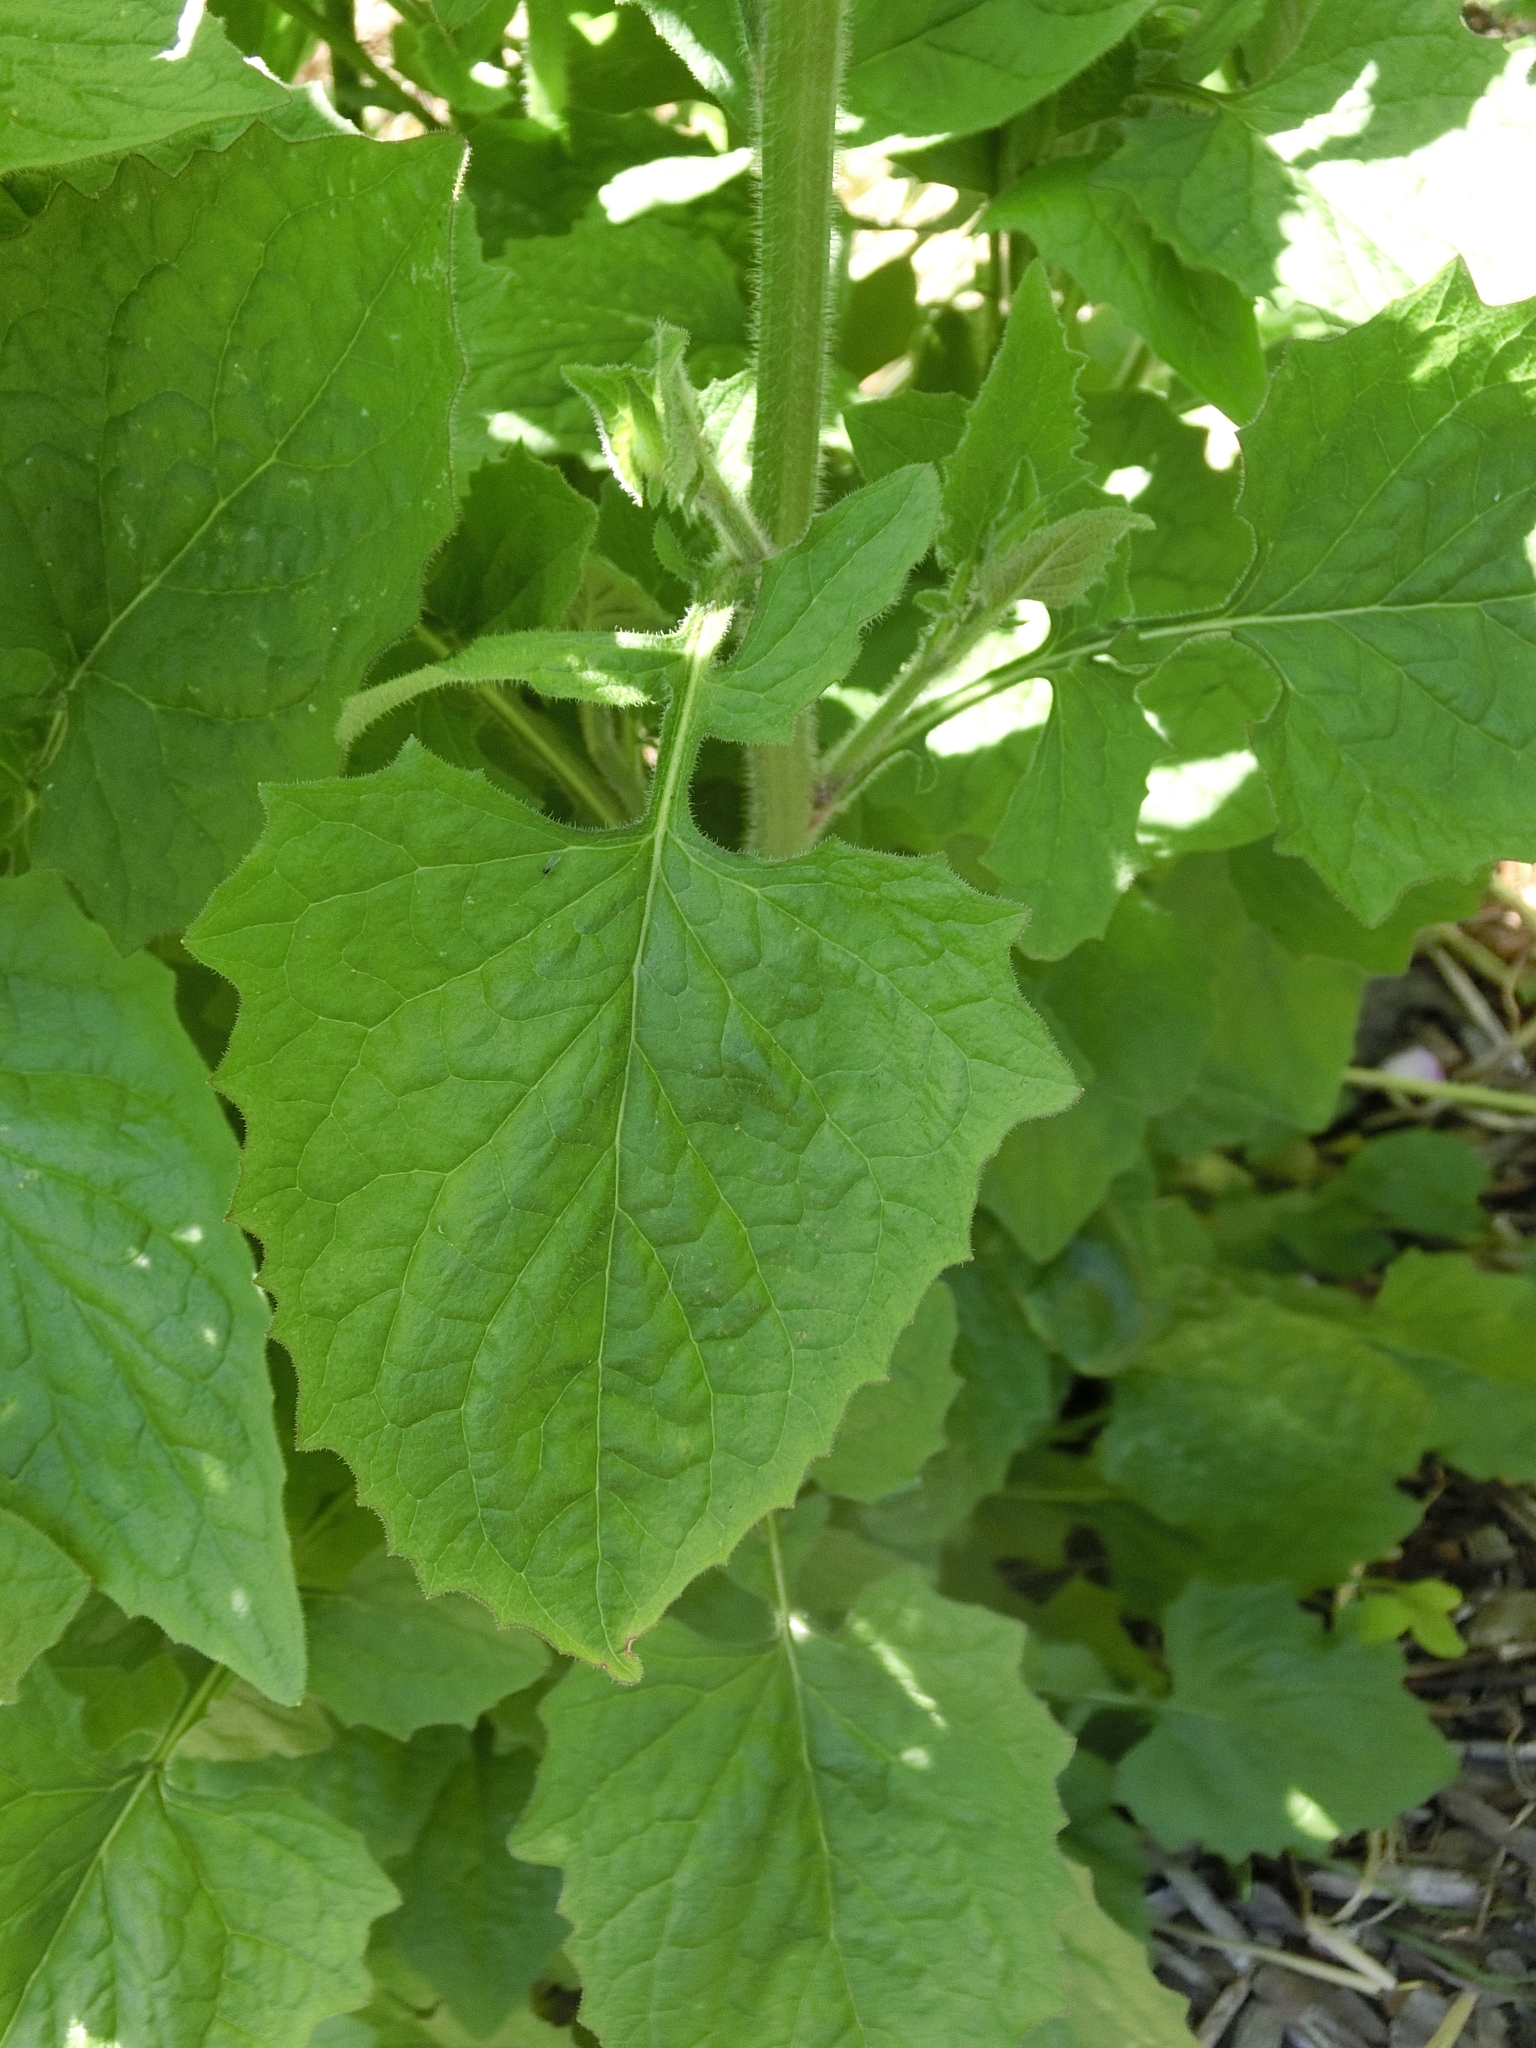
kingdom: Plantae
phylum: Tracheophyta
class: Magnoliopsida
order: Asterales
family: Asteraceae
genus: Lapsana
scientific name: Lapsana communis
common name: Nipplewort
